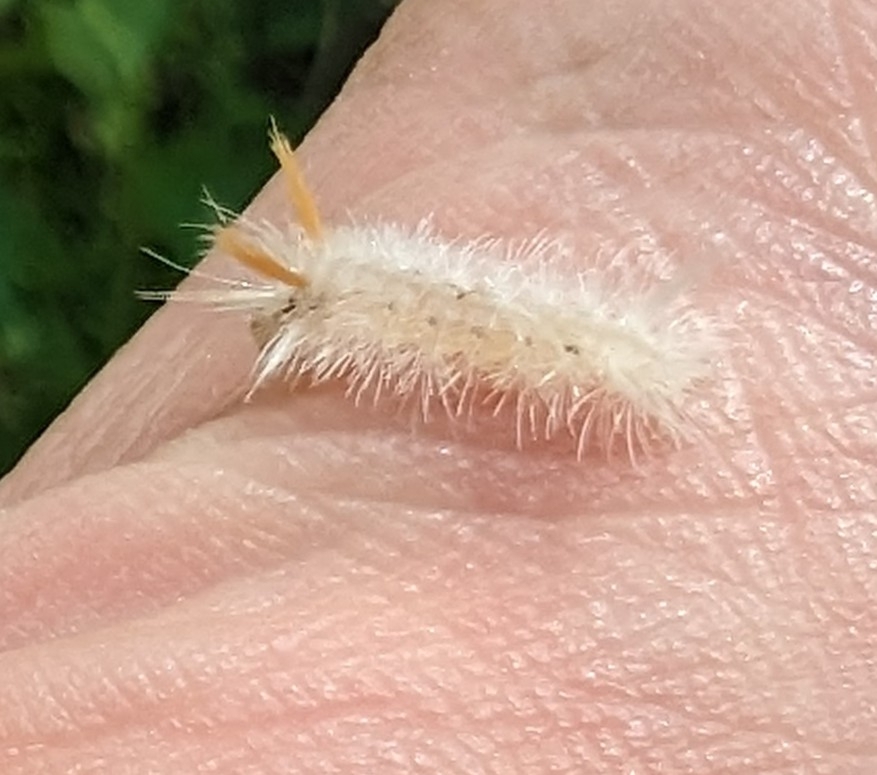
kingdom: Animalia
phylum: Arthropoda
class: Insecta
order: Lepidoptera
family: Erebidae
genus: Halysidota
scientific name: Halysidota harrisii
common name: Sycamore tussock moth
